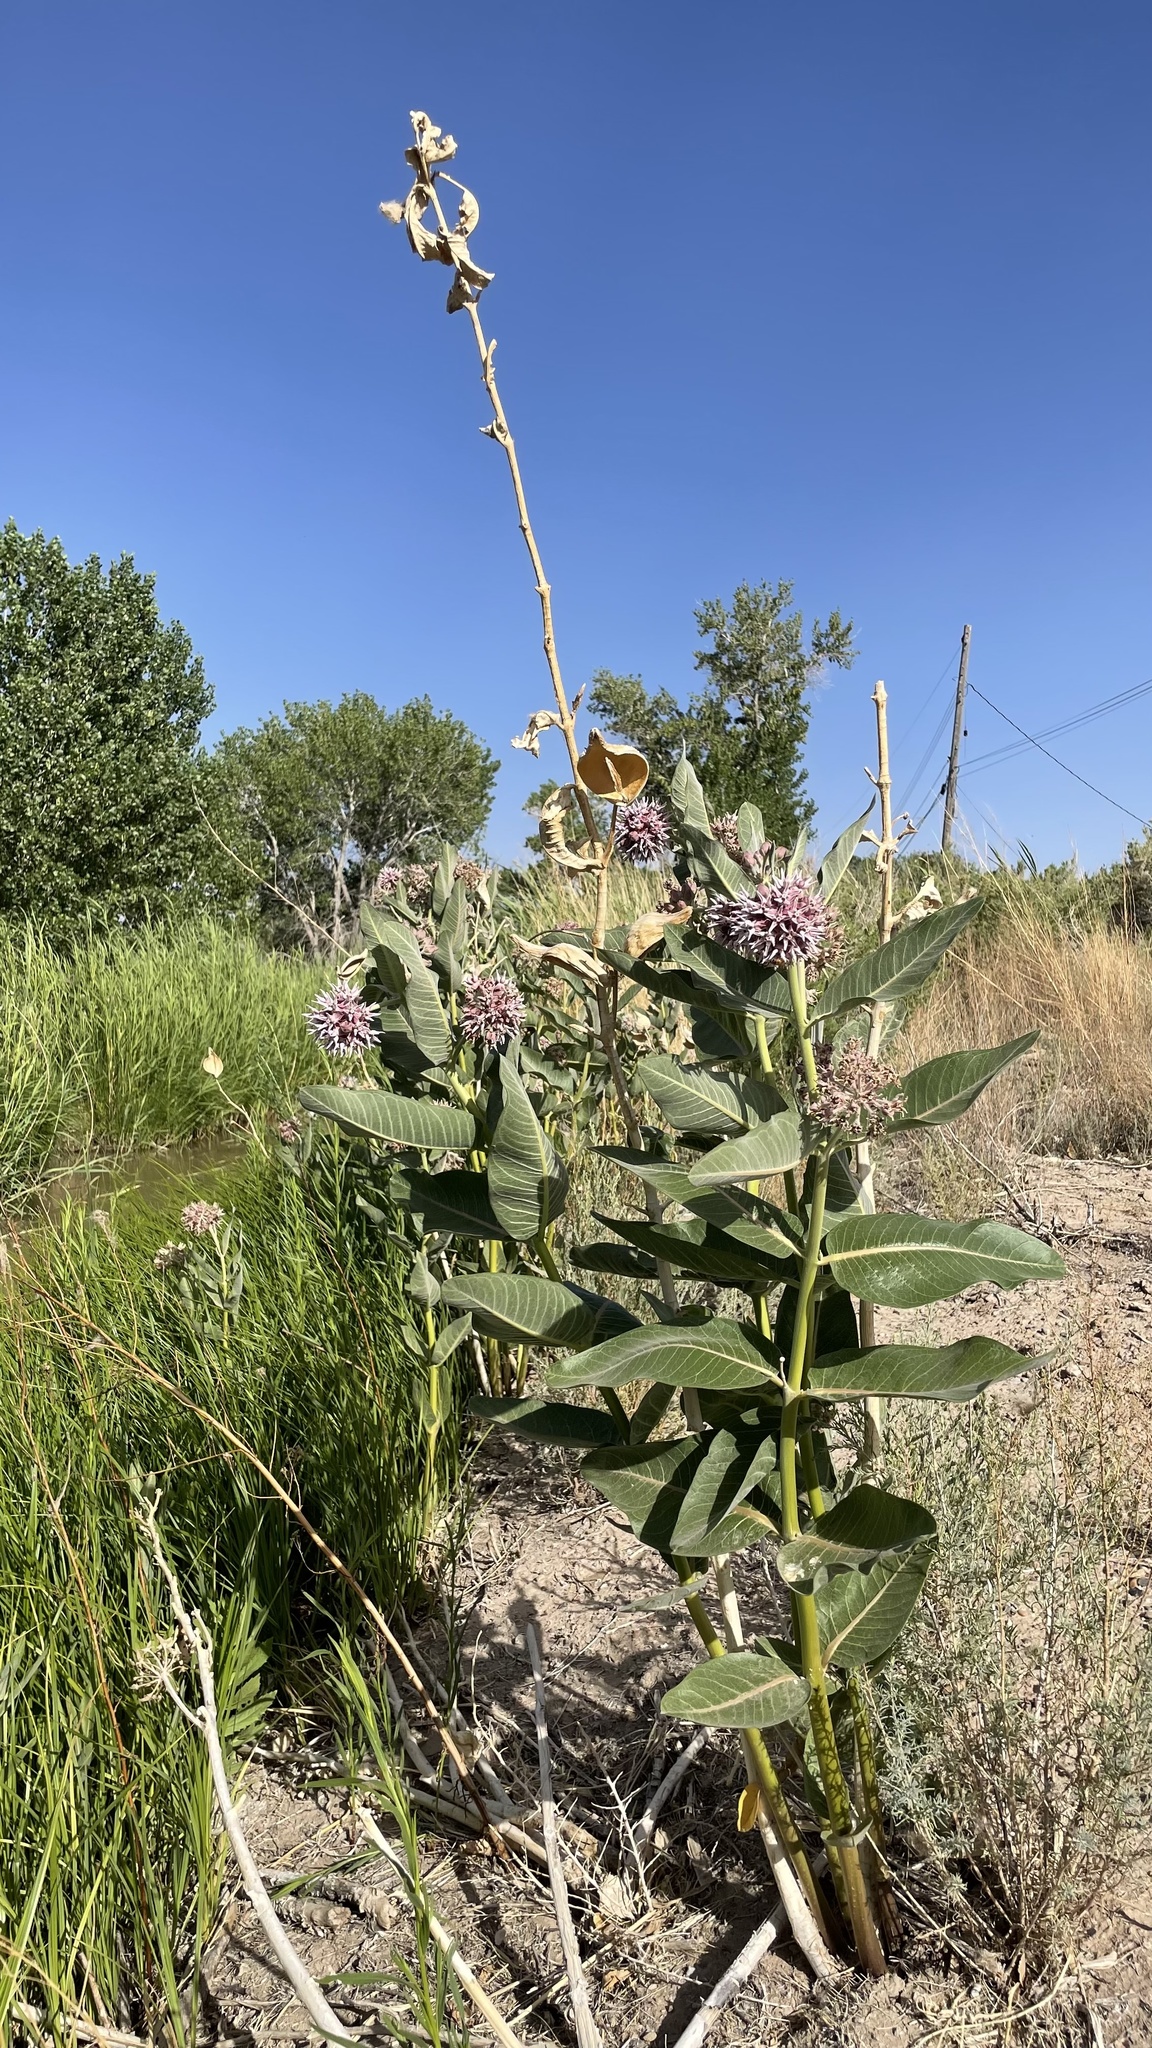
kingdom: Plantae
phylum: Tracheophyta
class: Magnoliopsida
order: Gentianales
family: Apocynaceae
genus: Asclepias
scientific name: Asclepias speciosa
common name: Showy milkweed
